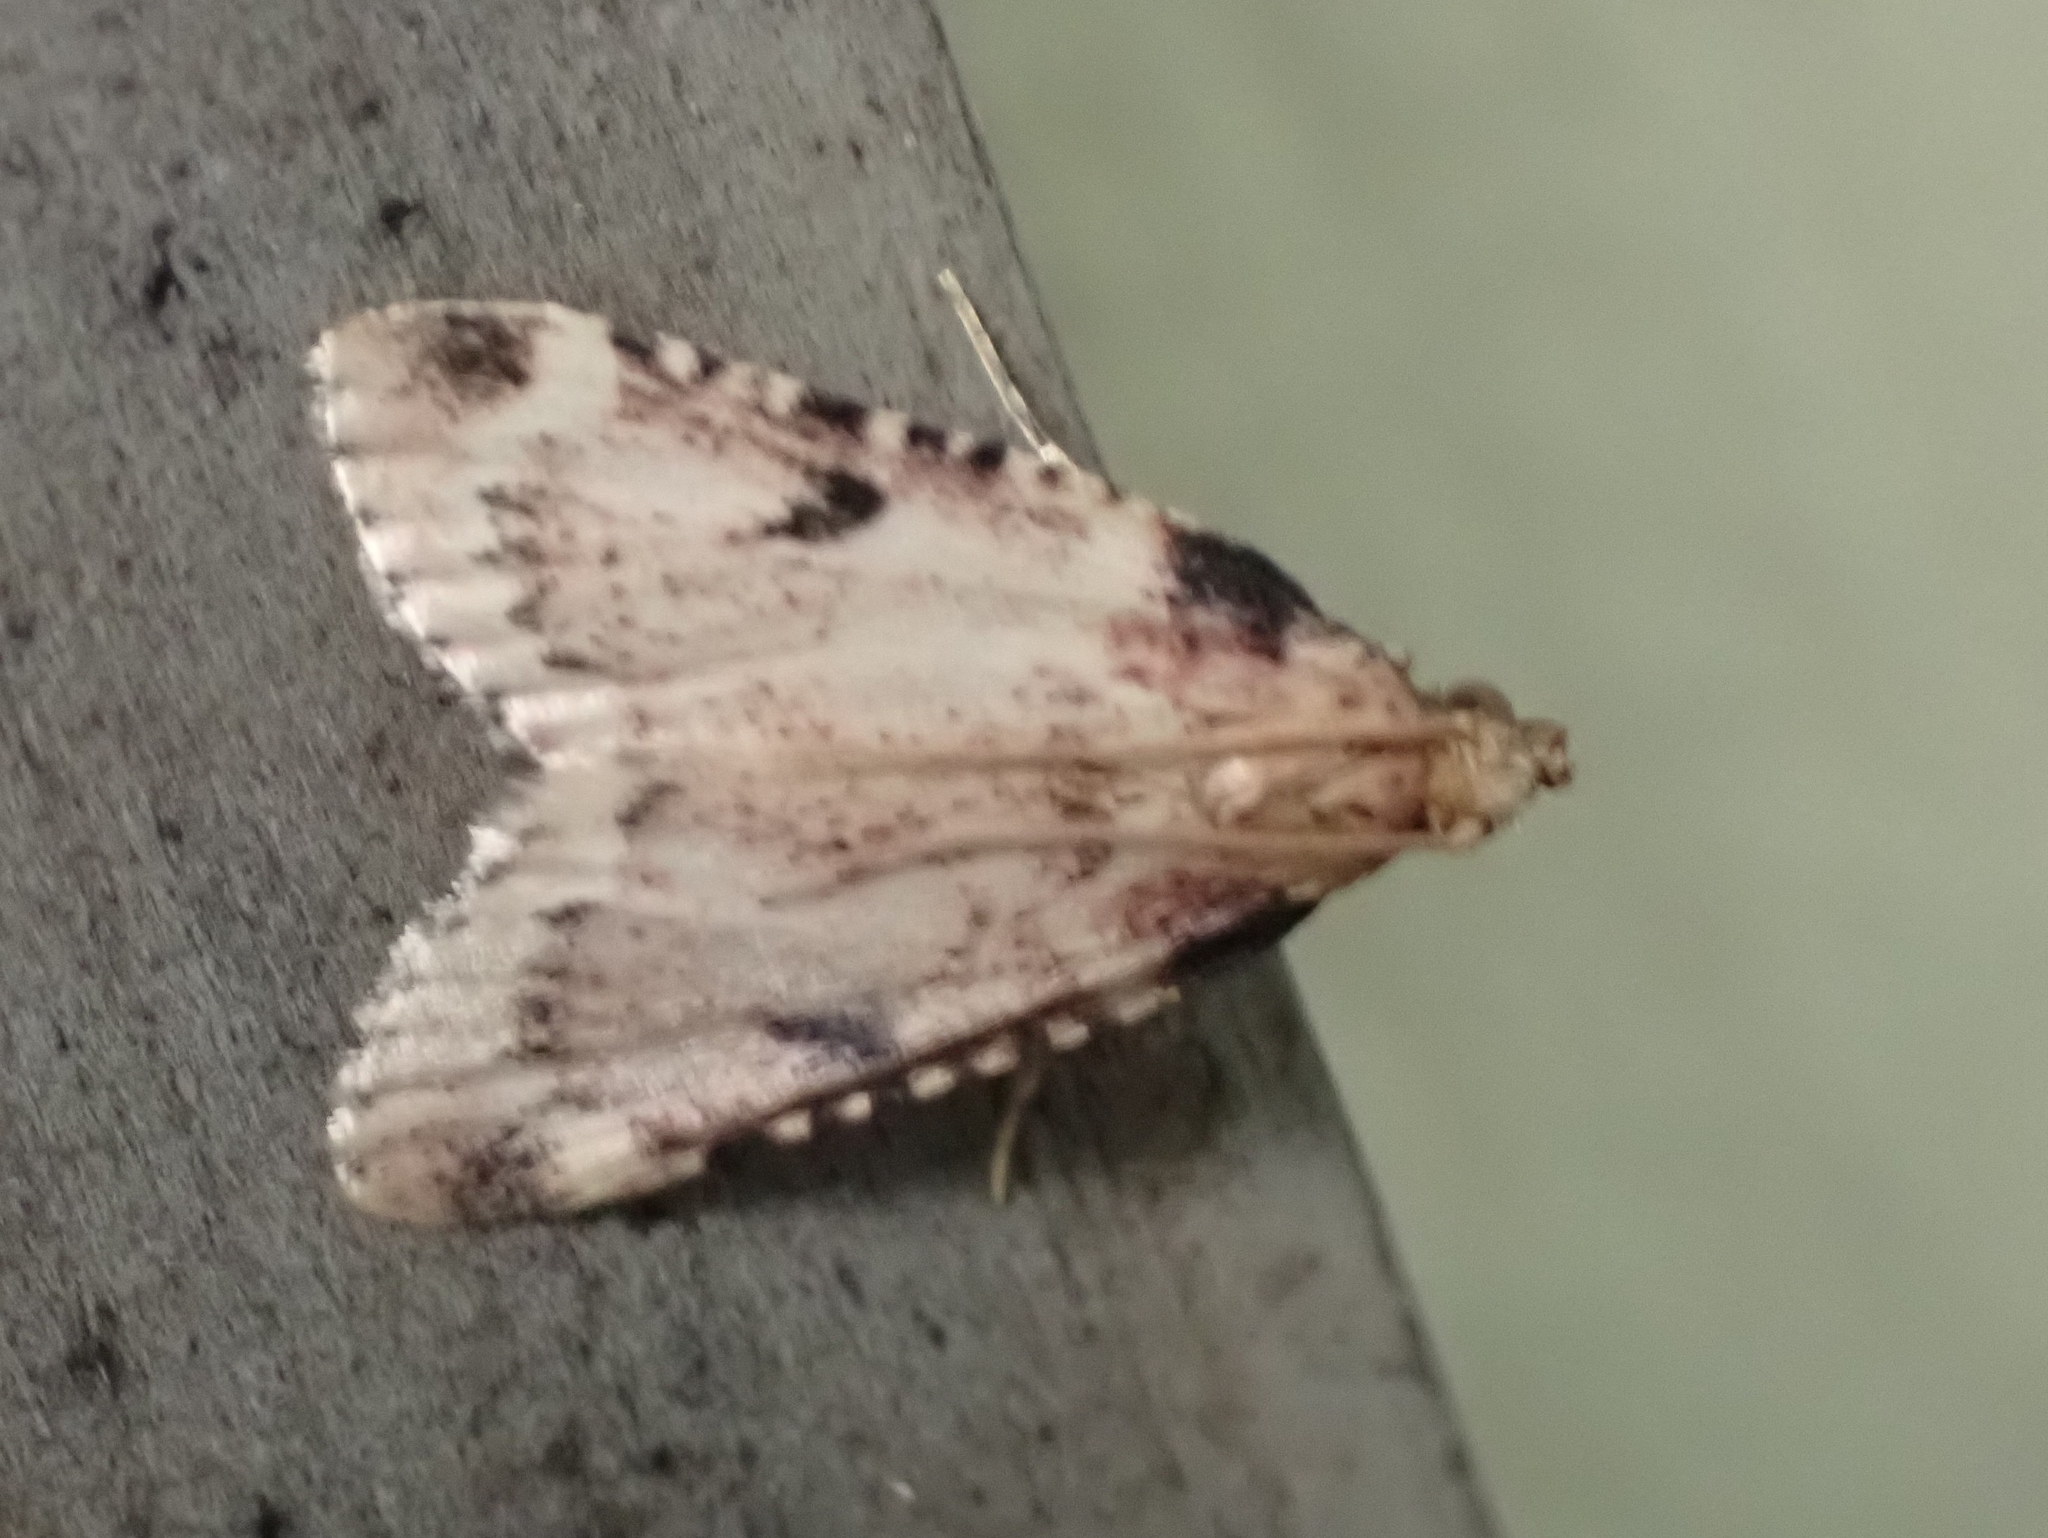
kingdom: Animalia
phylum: Arthropoda
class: Insecta
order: Lepidoptera
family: Pyralidae
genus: Aglossa
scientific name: Aglossa costiferalis
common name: Calico pyralid moth
